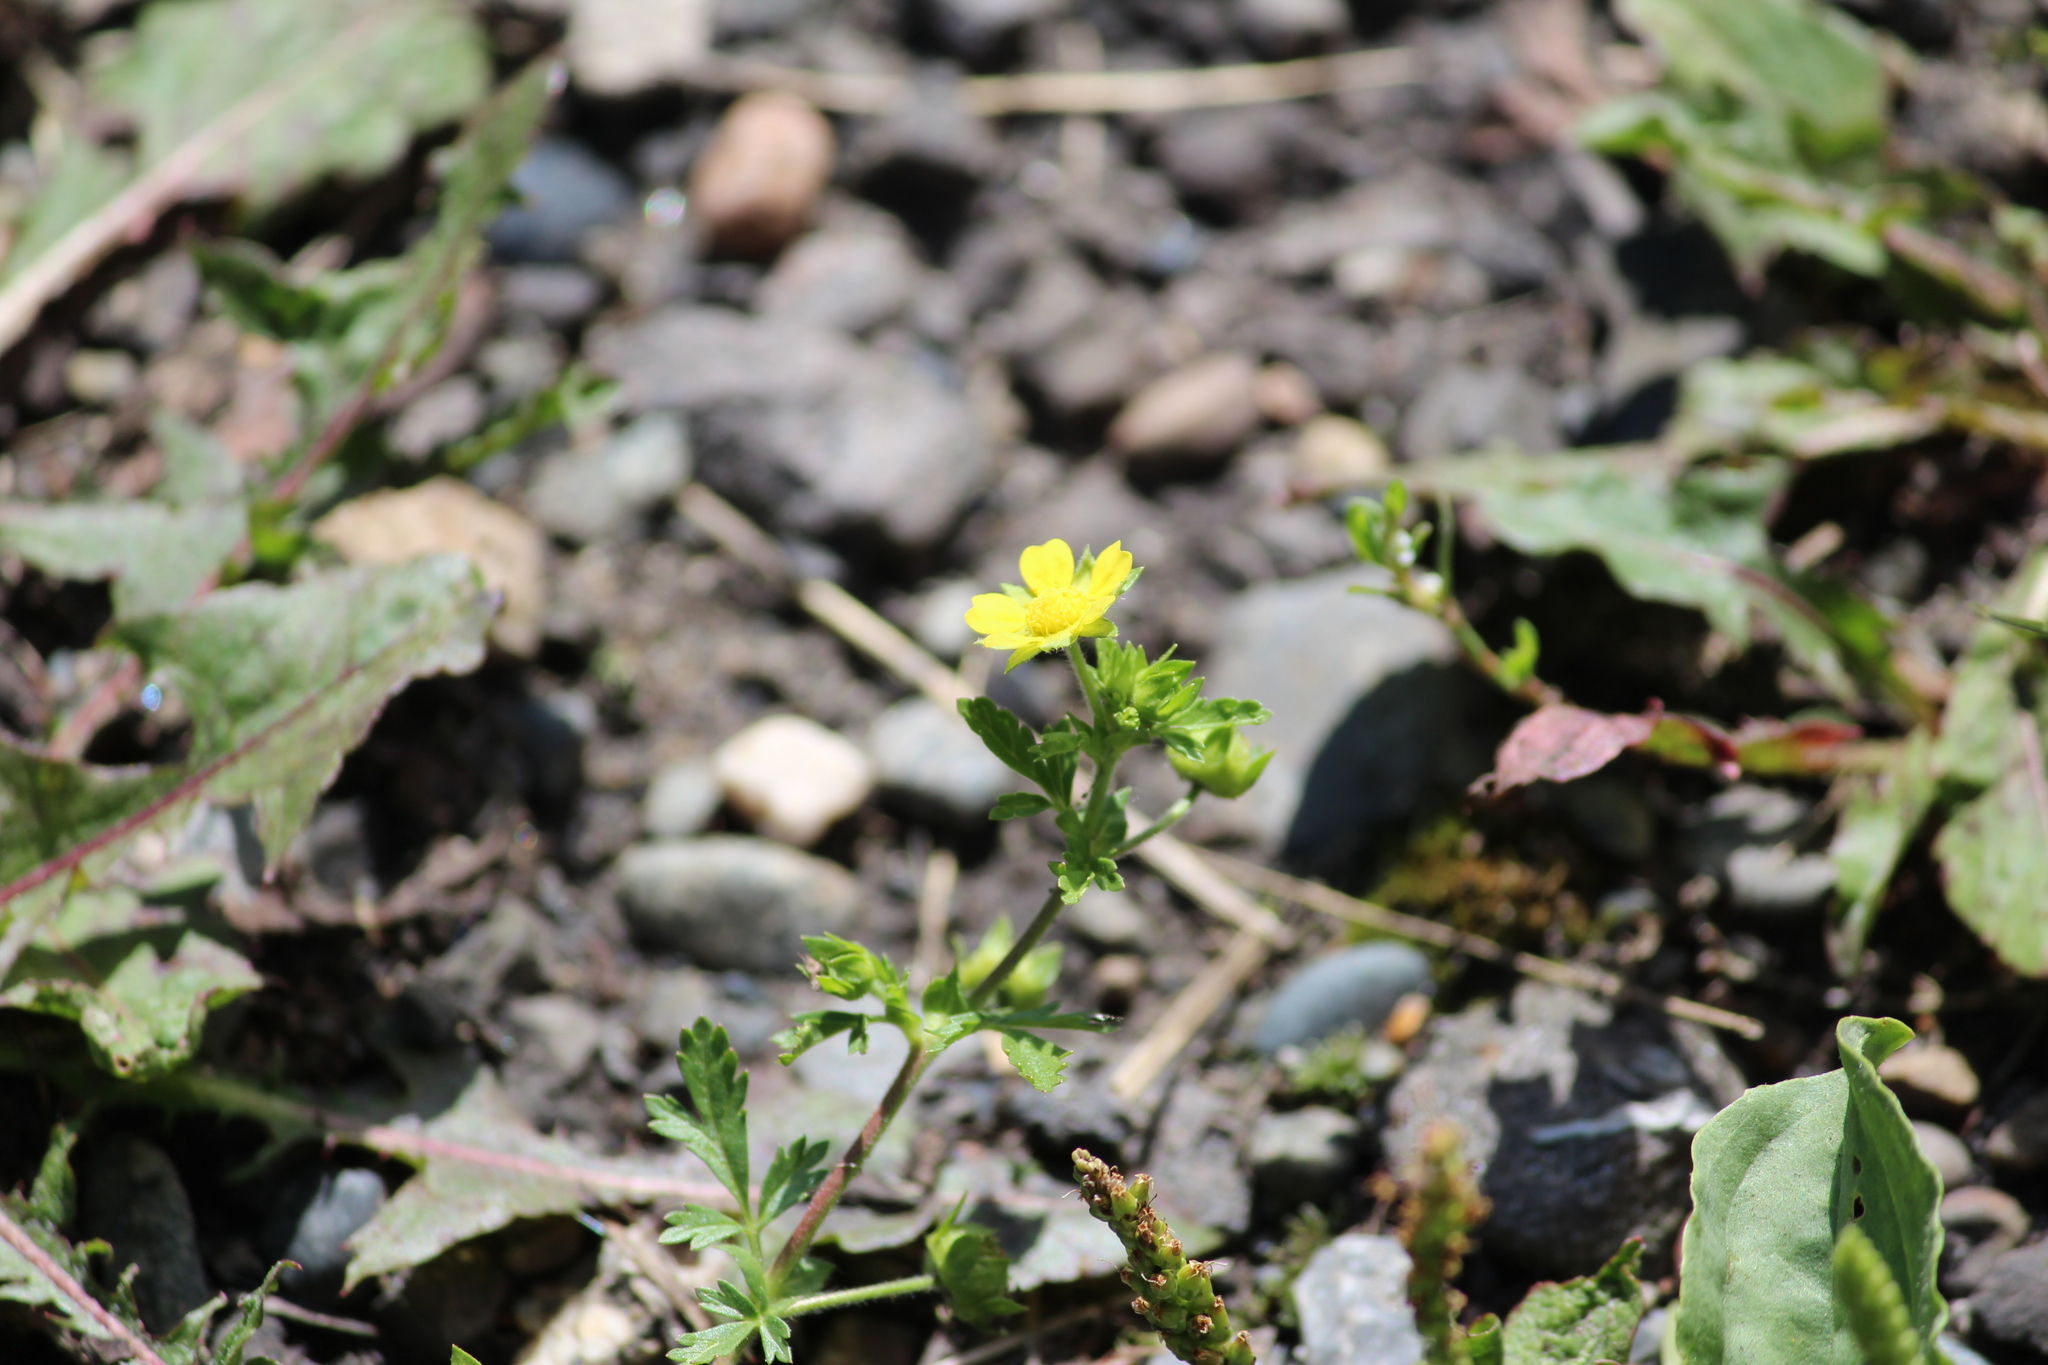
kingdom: Plantae
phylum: Tracheophyta
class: Magnoliopsida
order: Rosales
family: Rosaceae
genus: Potentilla
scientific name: Potentilla supina
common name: Prostrate cinquefoil
